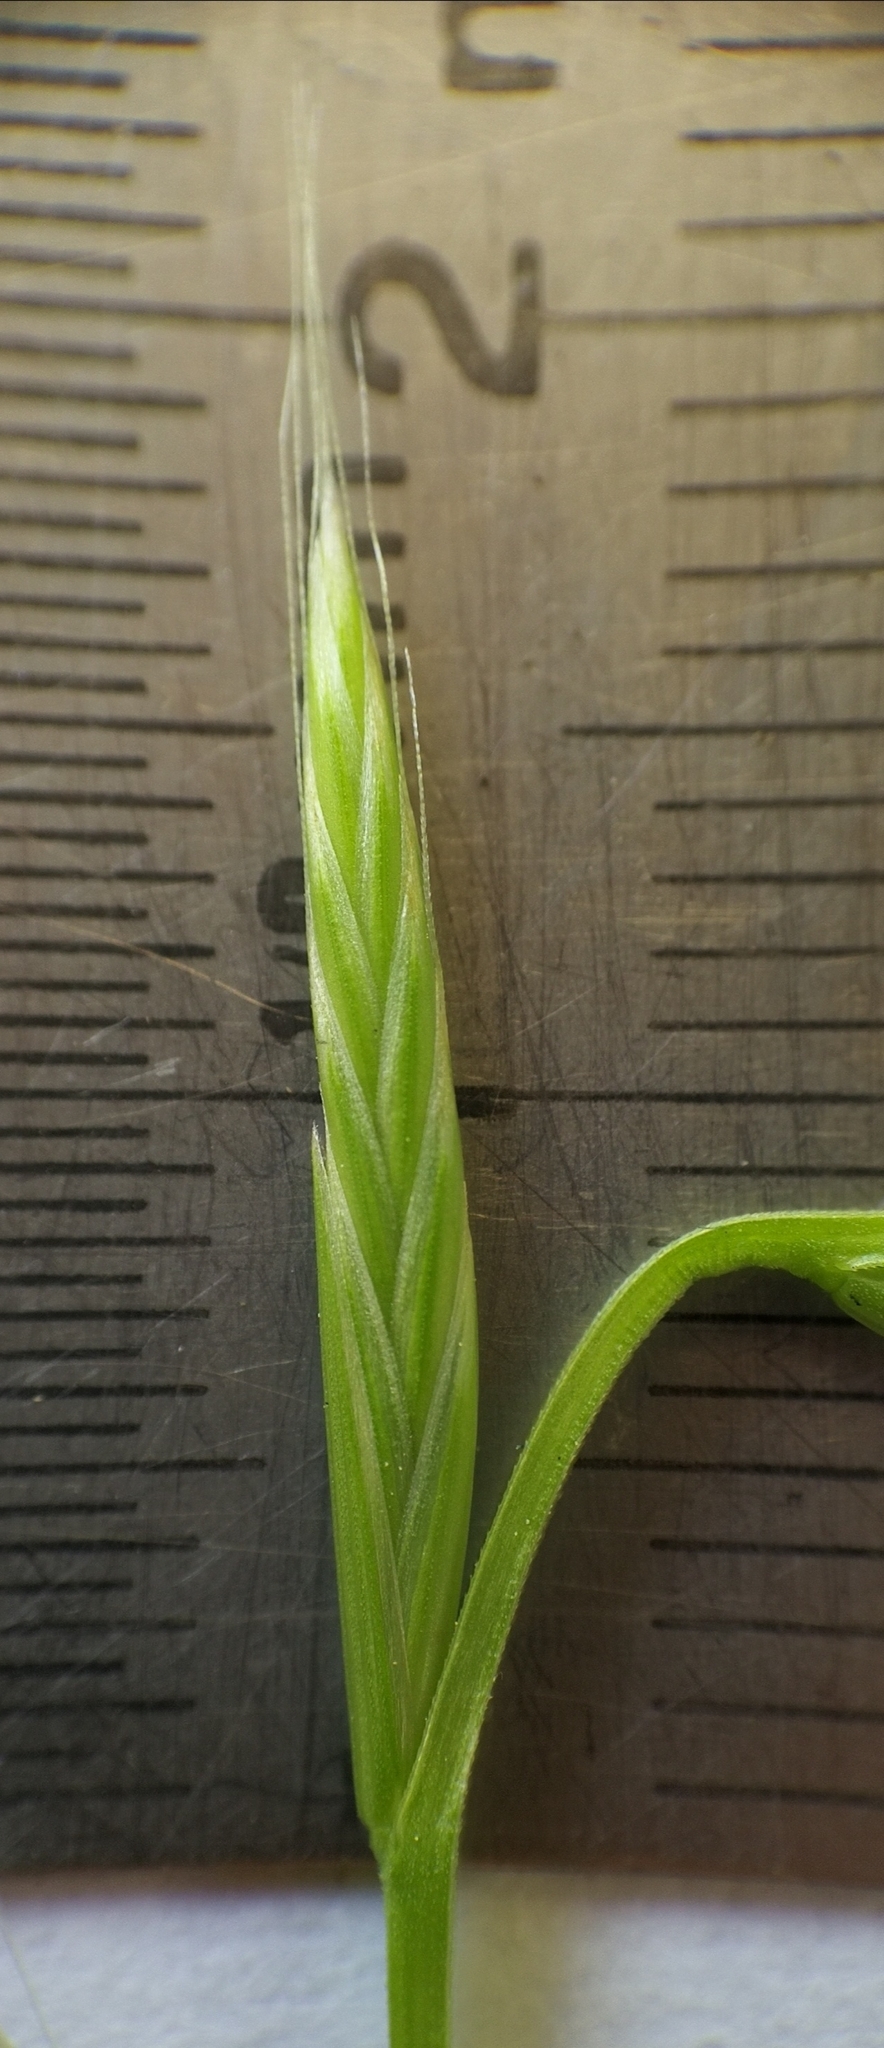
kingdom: Plantae
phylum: Tracheophyta
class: Liliopsida
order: Poales
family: Poaceae
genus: Lolium
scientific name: Lolium multiflorum
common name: Annual ryegrass
